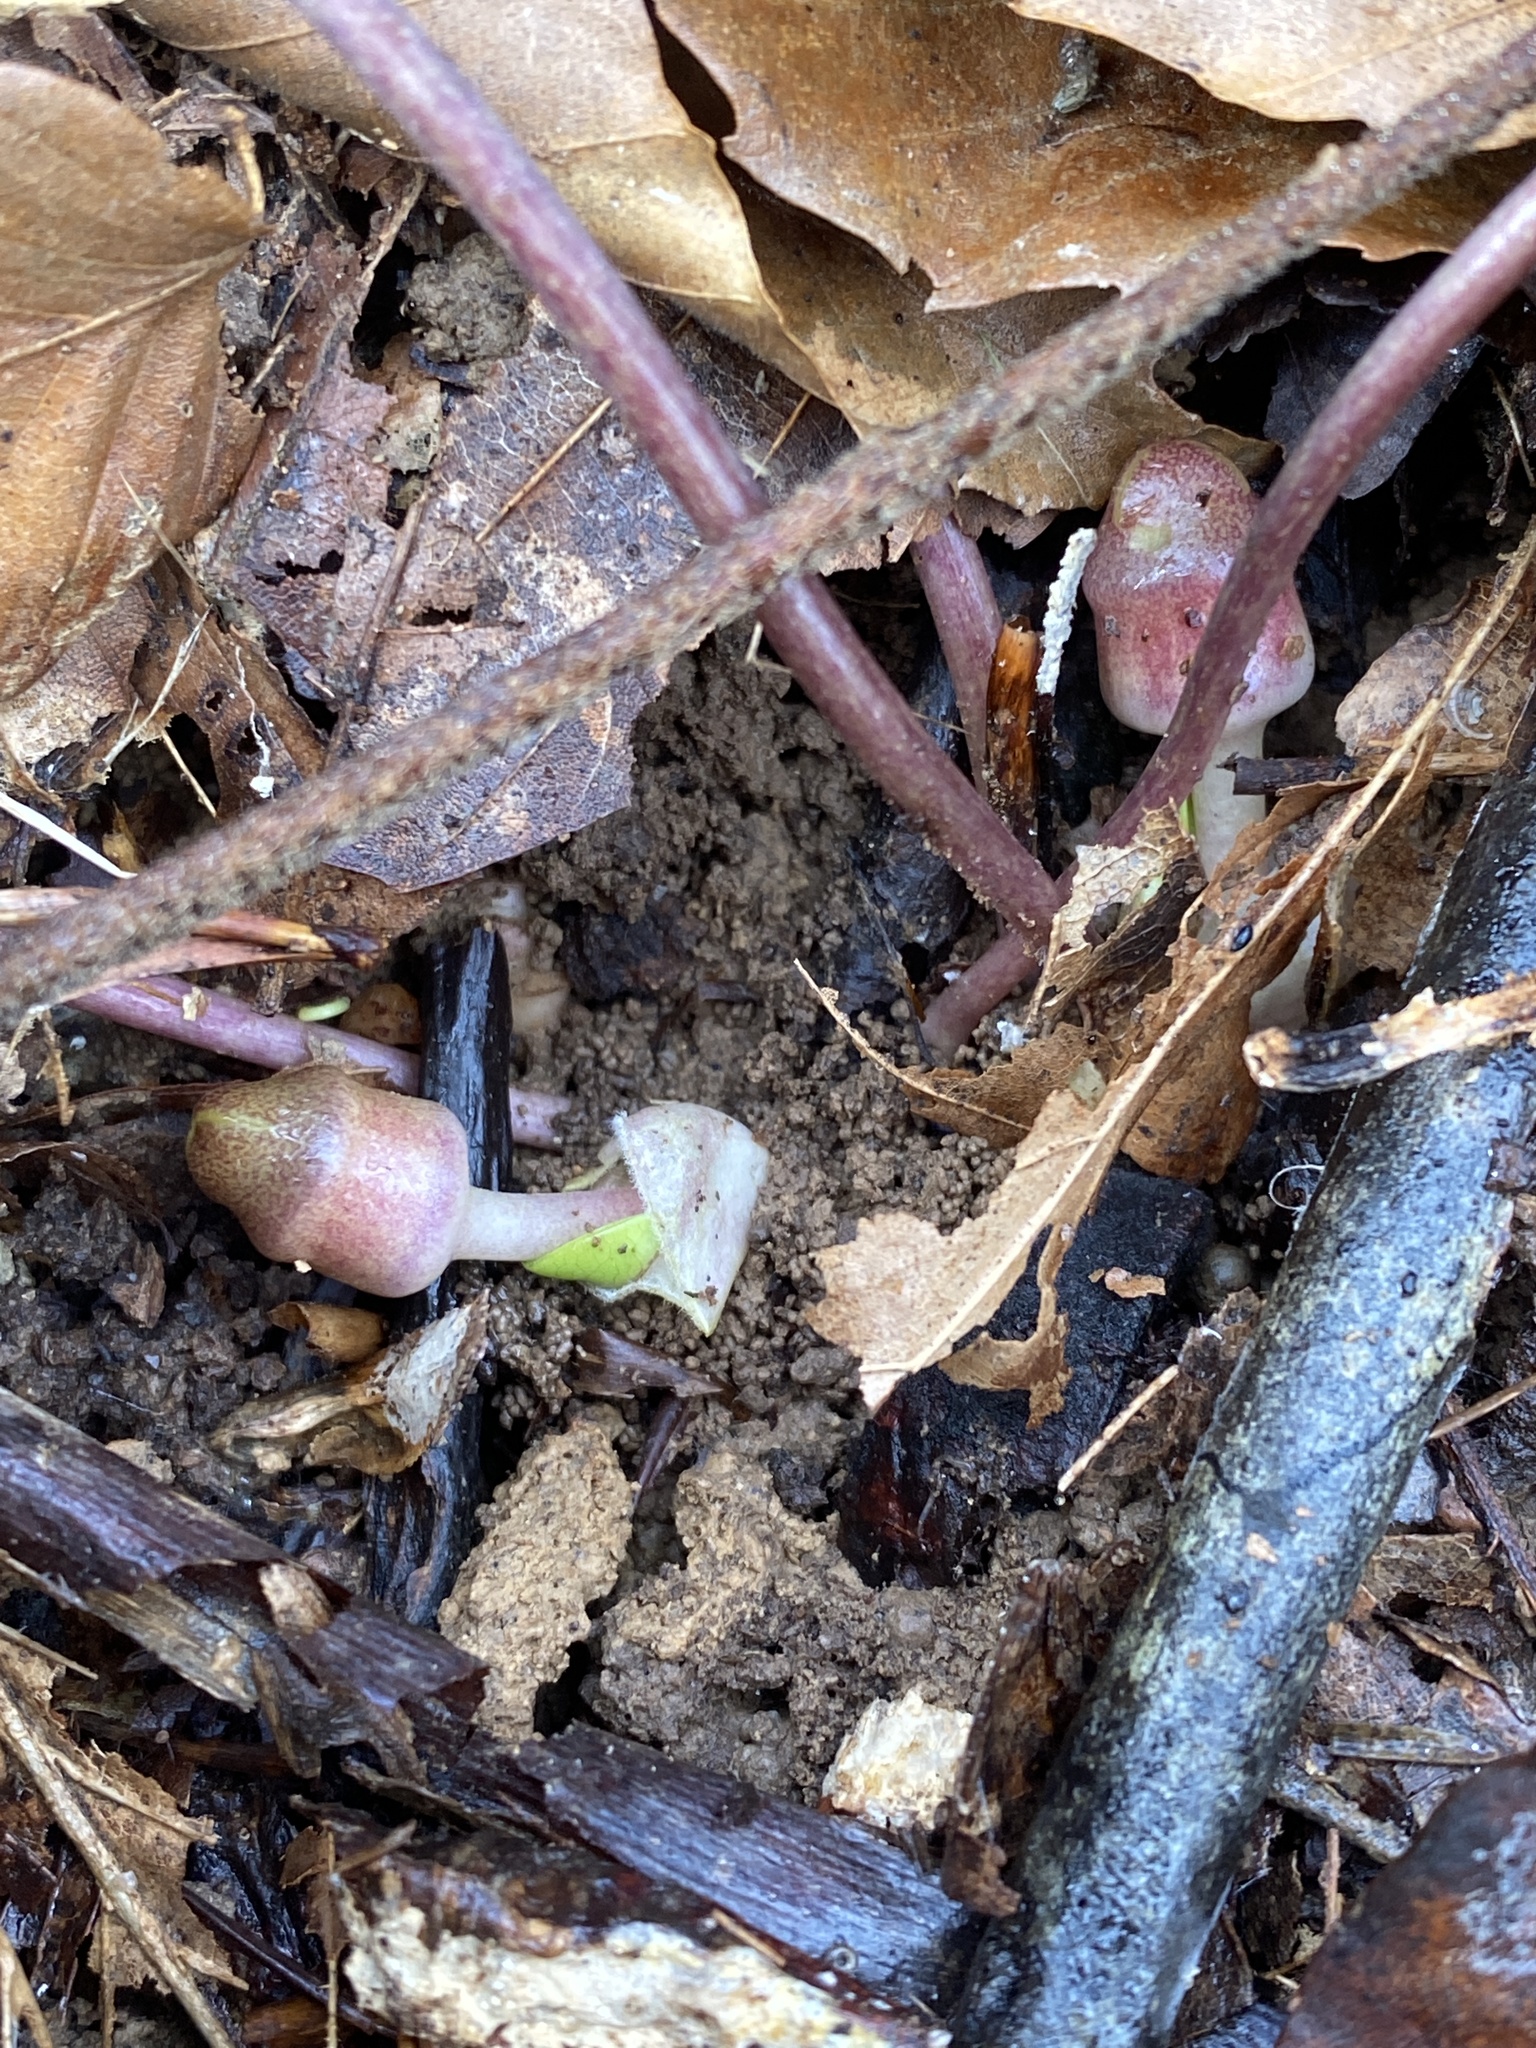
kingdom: Plantae
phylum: Tracheophyta
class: Magnoliopsida
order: Piperales
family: Aristolochiaceae
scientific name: Aristolochiaceae
